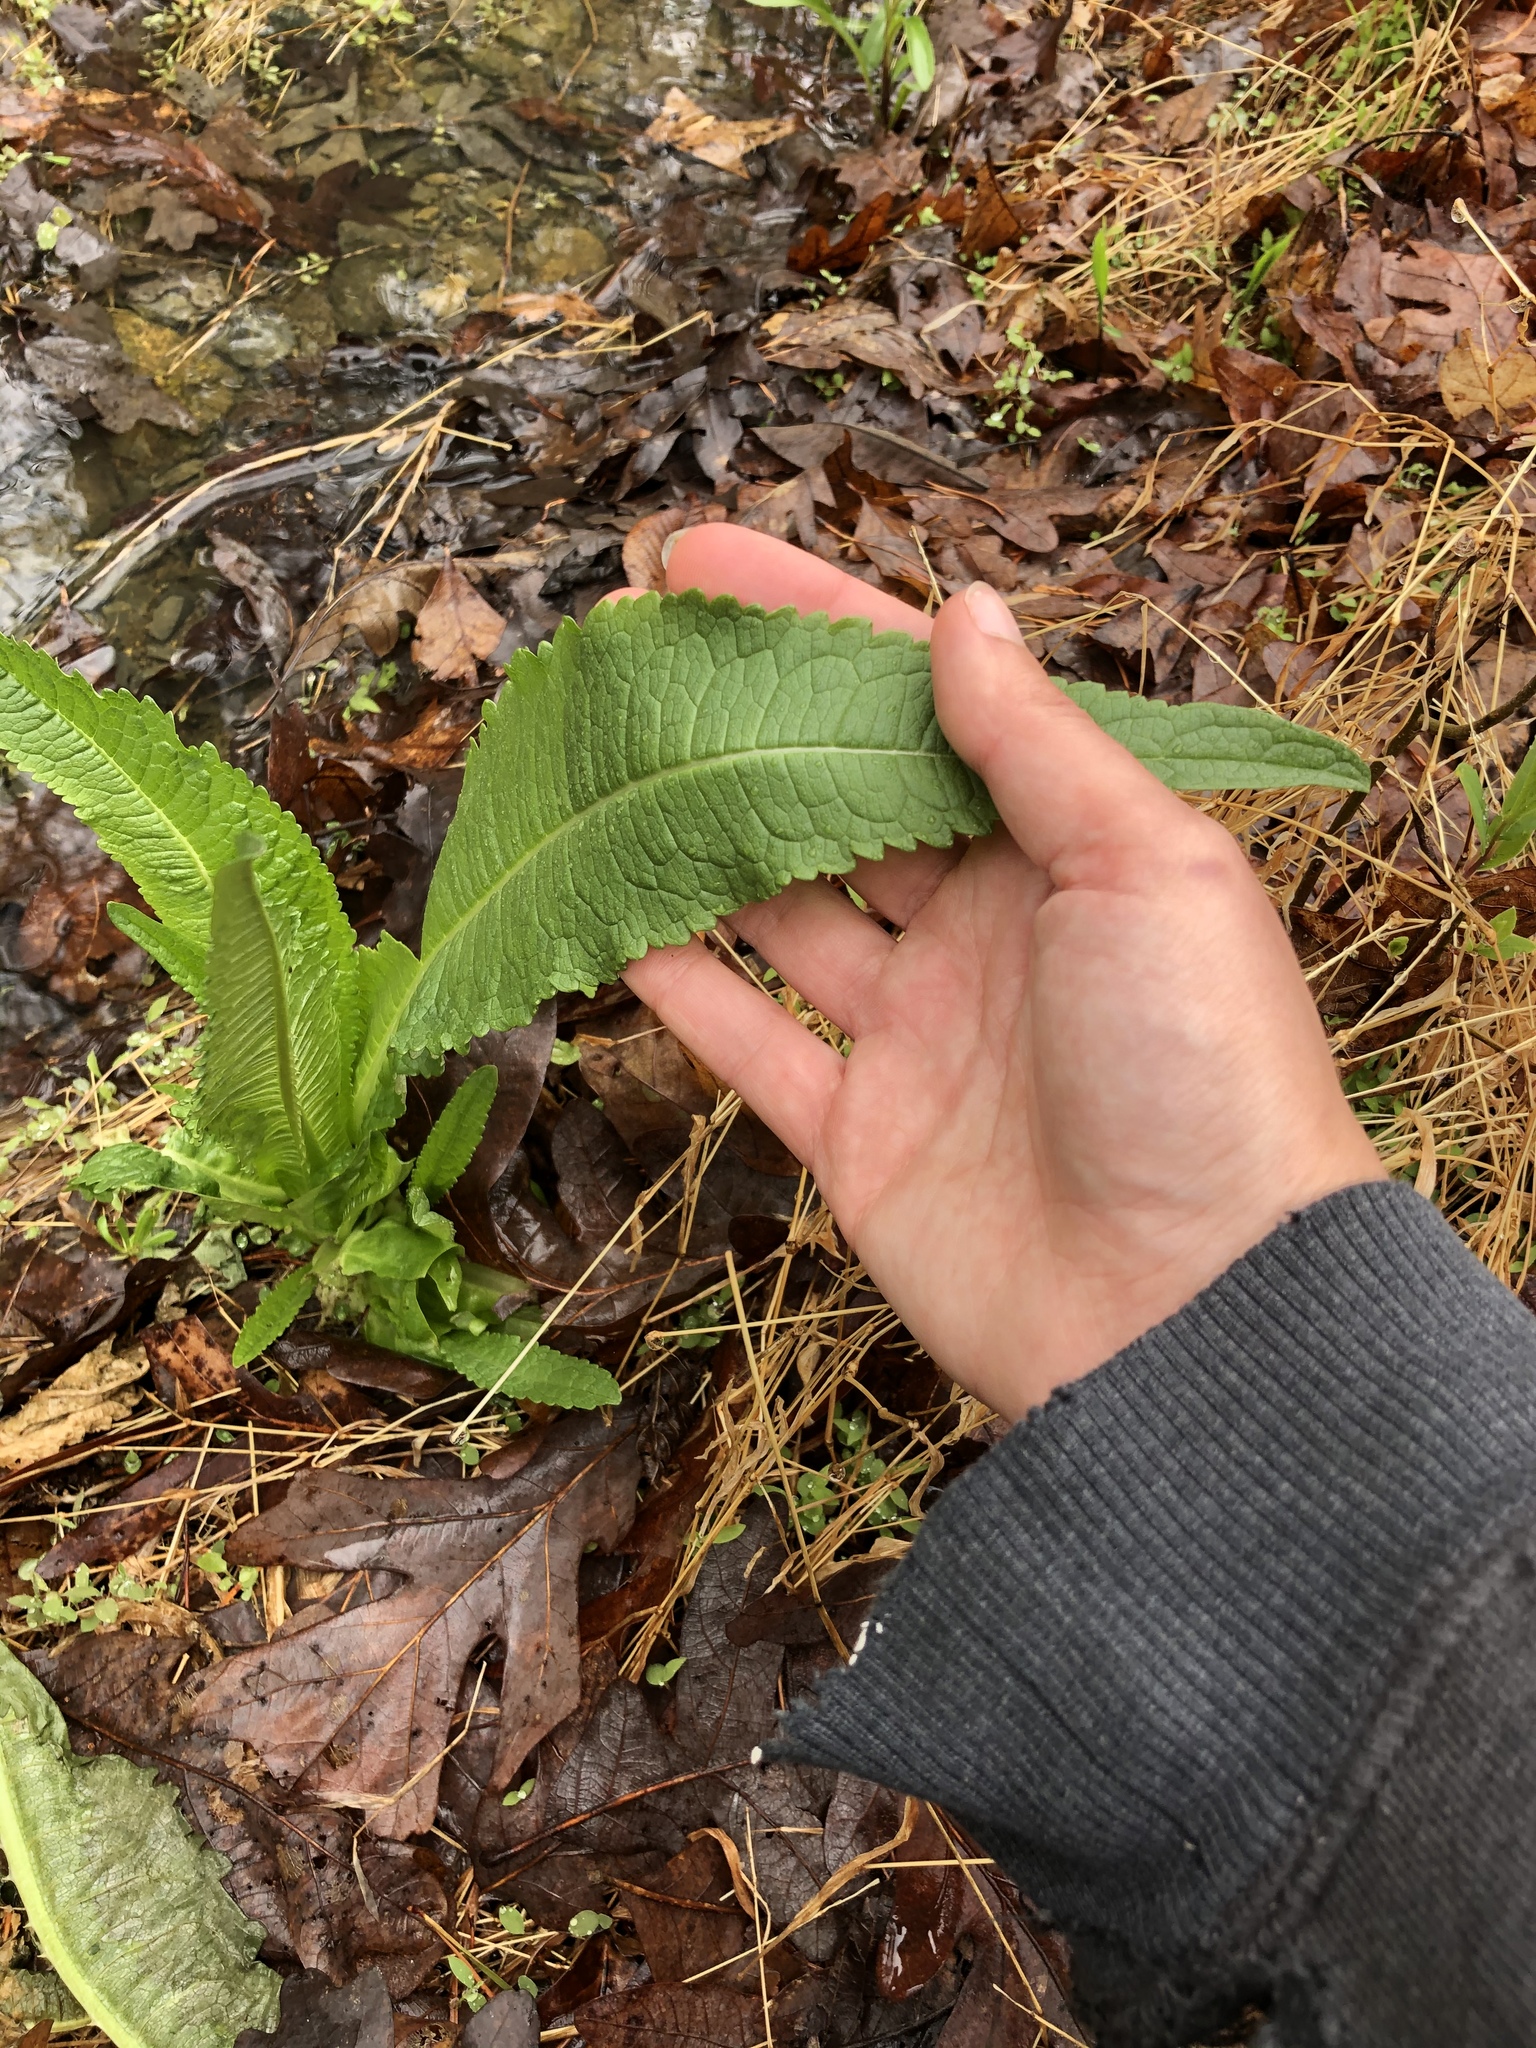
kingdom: Plantae
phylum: Tracheophyta
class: Magnoliopsida
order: Dipsacales
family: Caprifoliaceae
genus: Dipsacus
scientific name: Dipsacus fullonum
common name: Teasel
